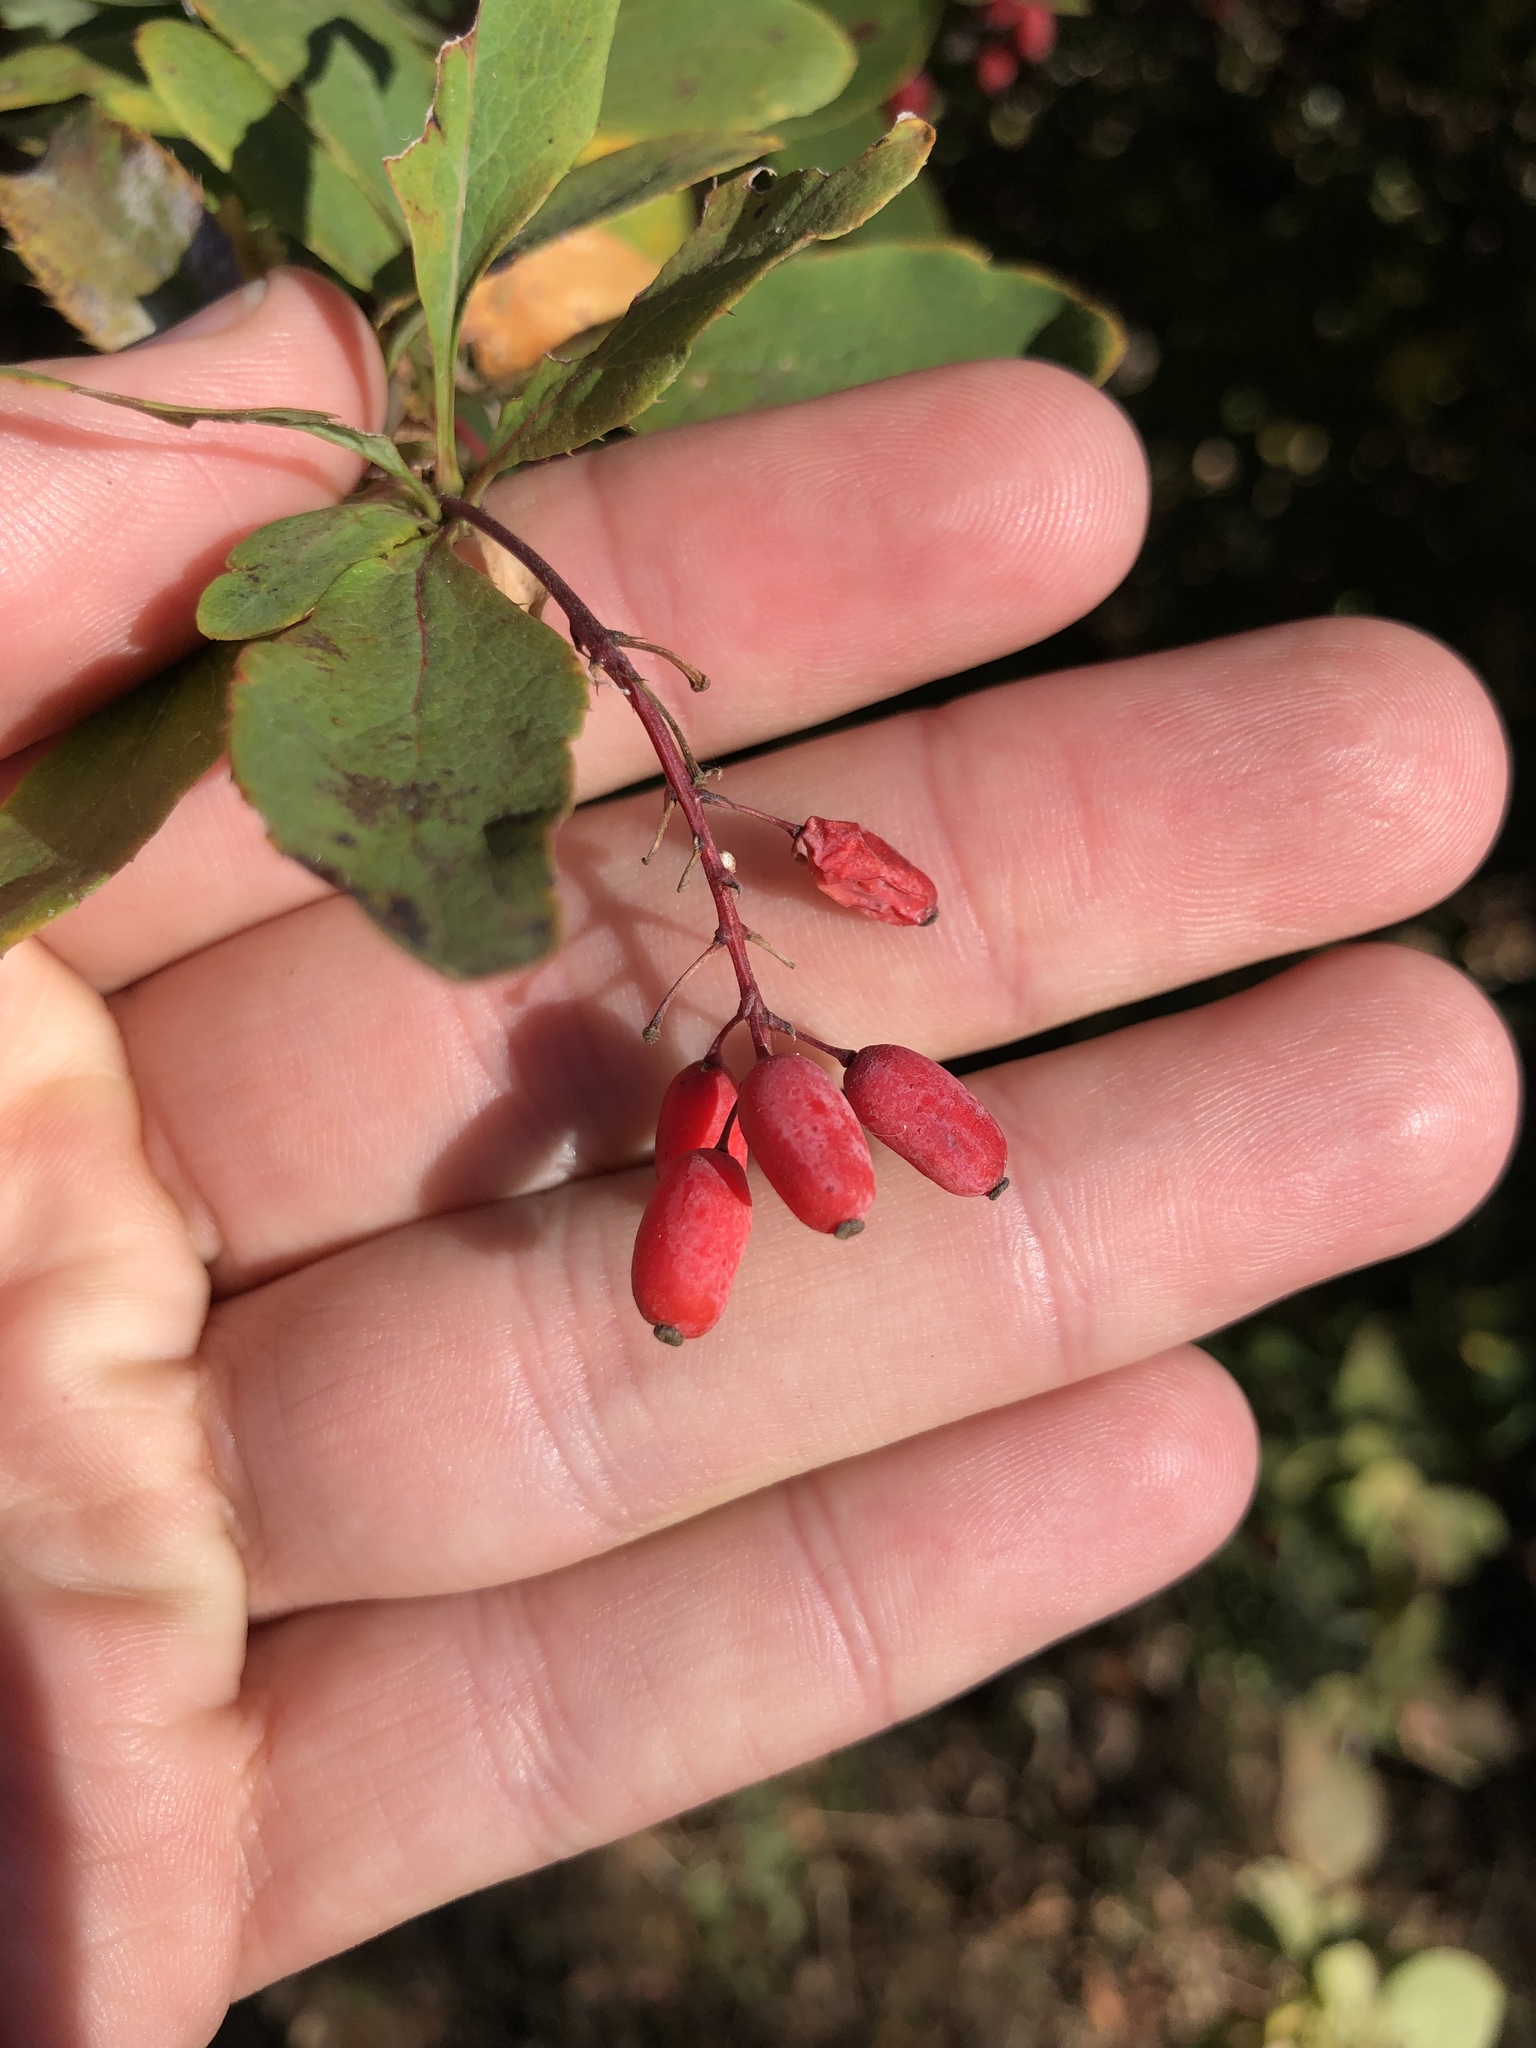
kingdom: Plantae
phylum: Tracheophyta
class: Magnoliopsida
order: Ranunculales
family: Berberidaceae
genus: Berberis
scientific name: Berberis vulgaris
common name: Barberry
